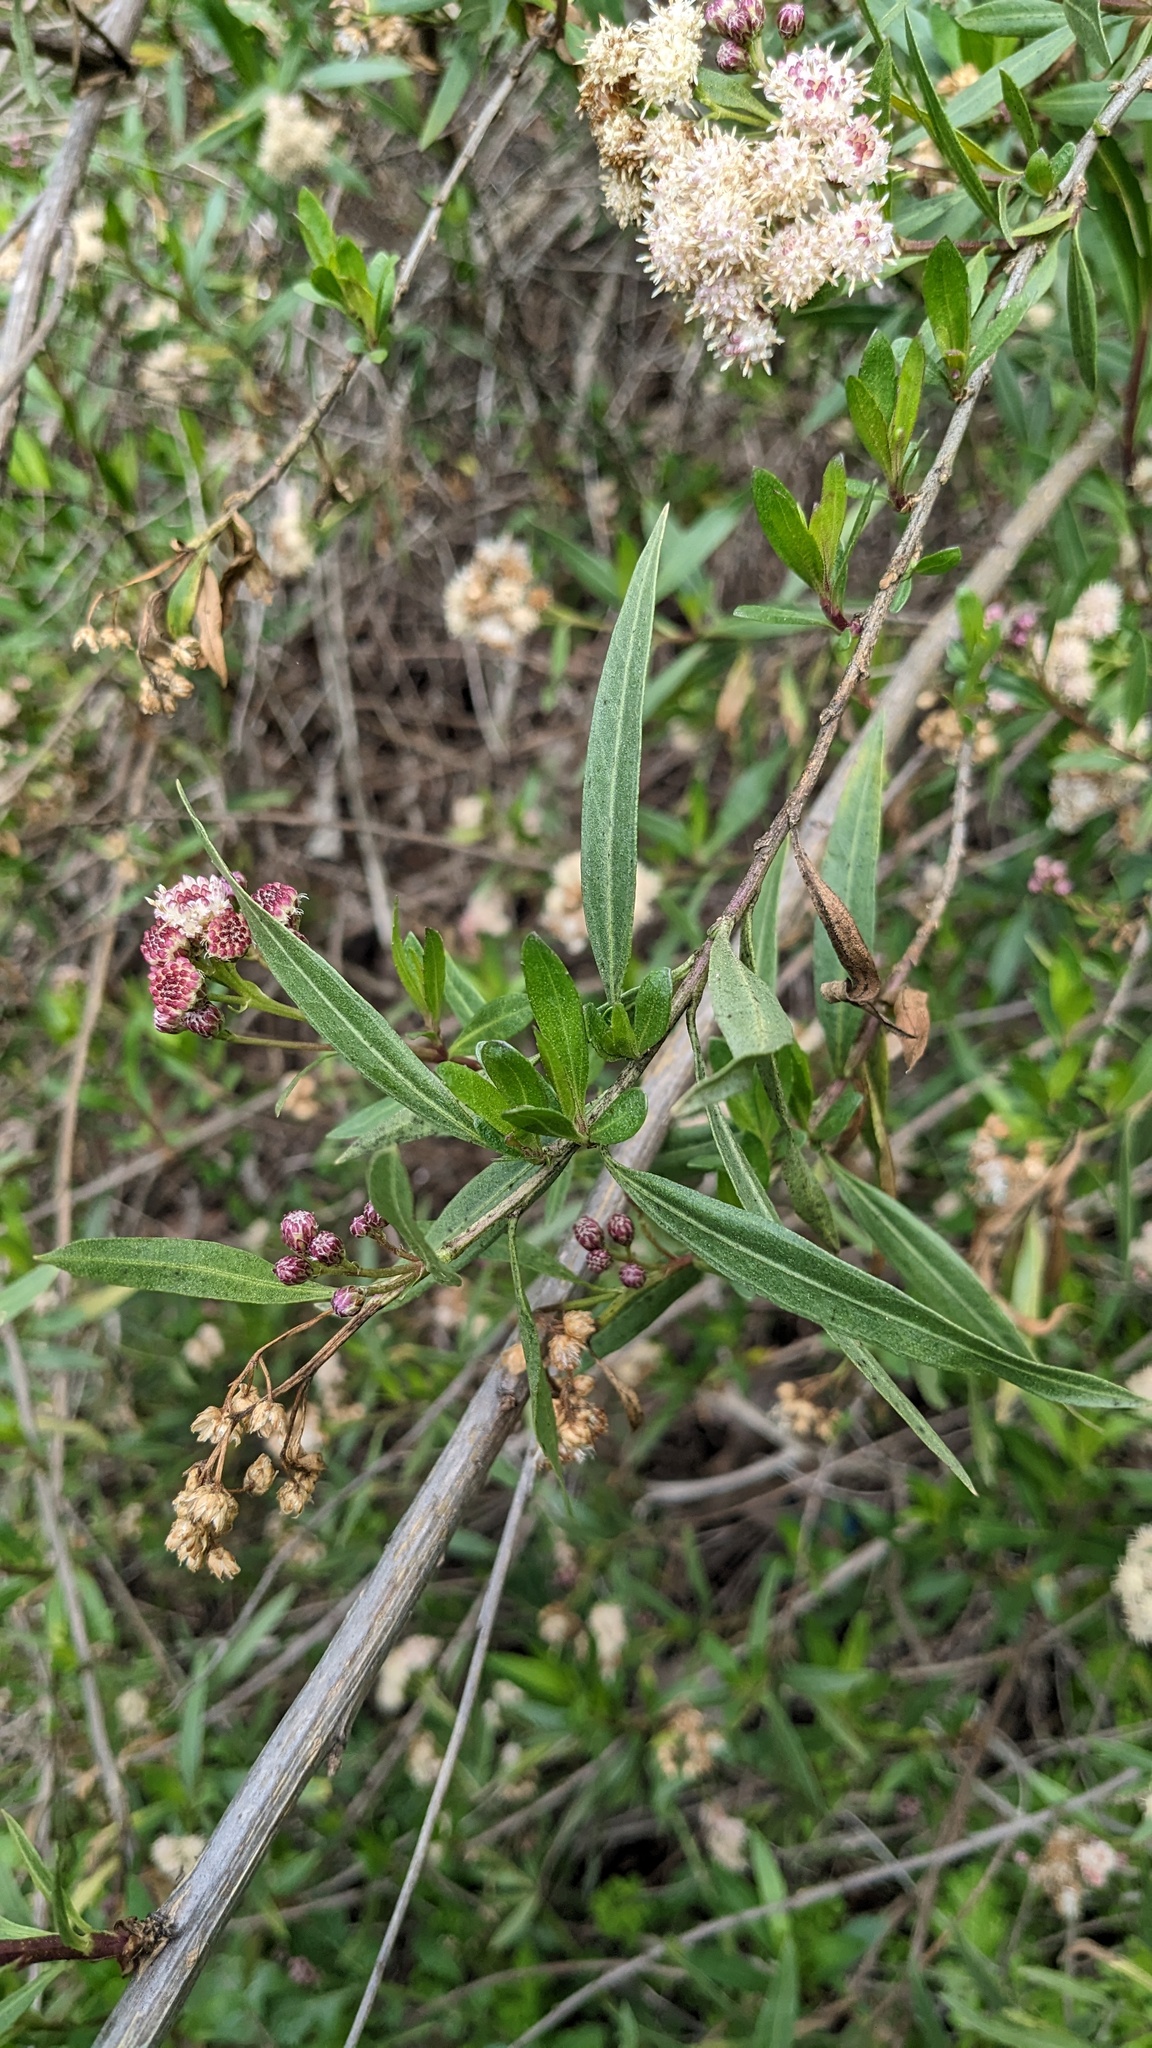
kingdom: Plantae
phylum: Tracheophyta
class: Magnoliopsida
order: Asterales
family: Asteraceae
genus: Baccharis
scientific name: Baccharis salicifolia
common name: Sticky baccharis
